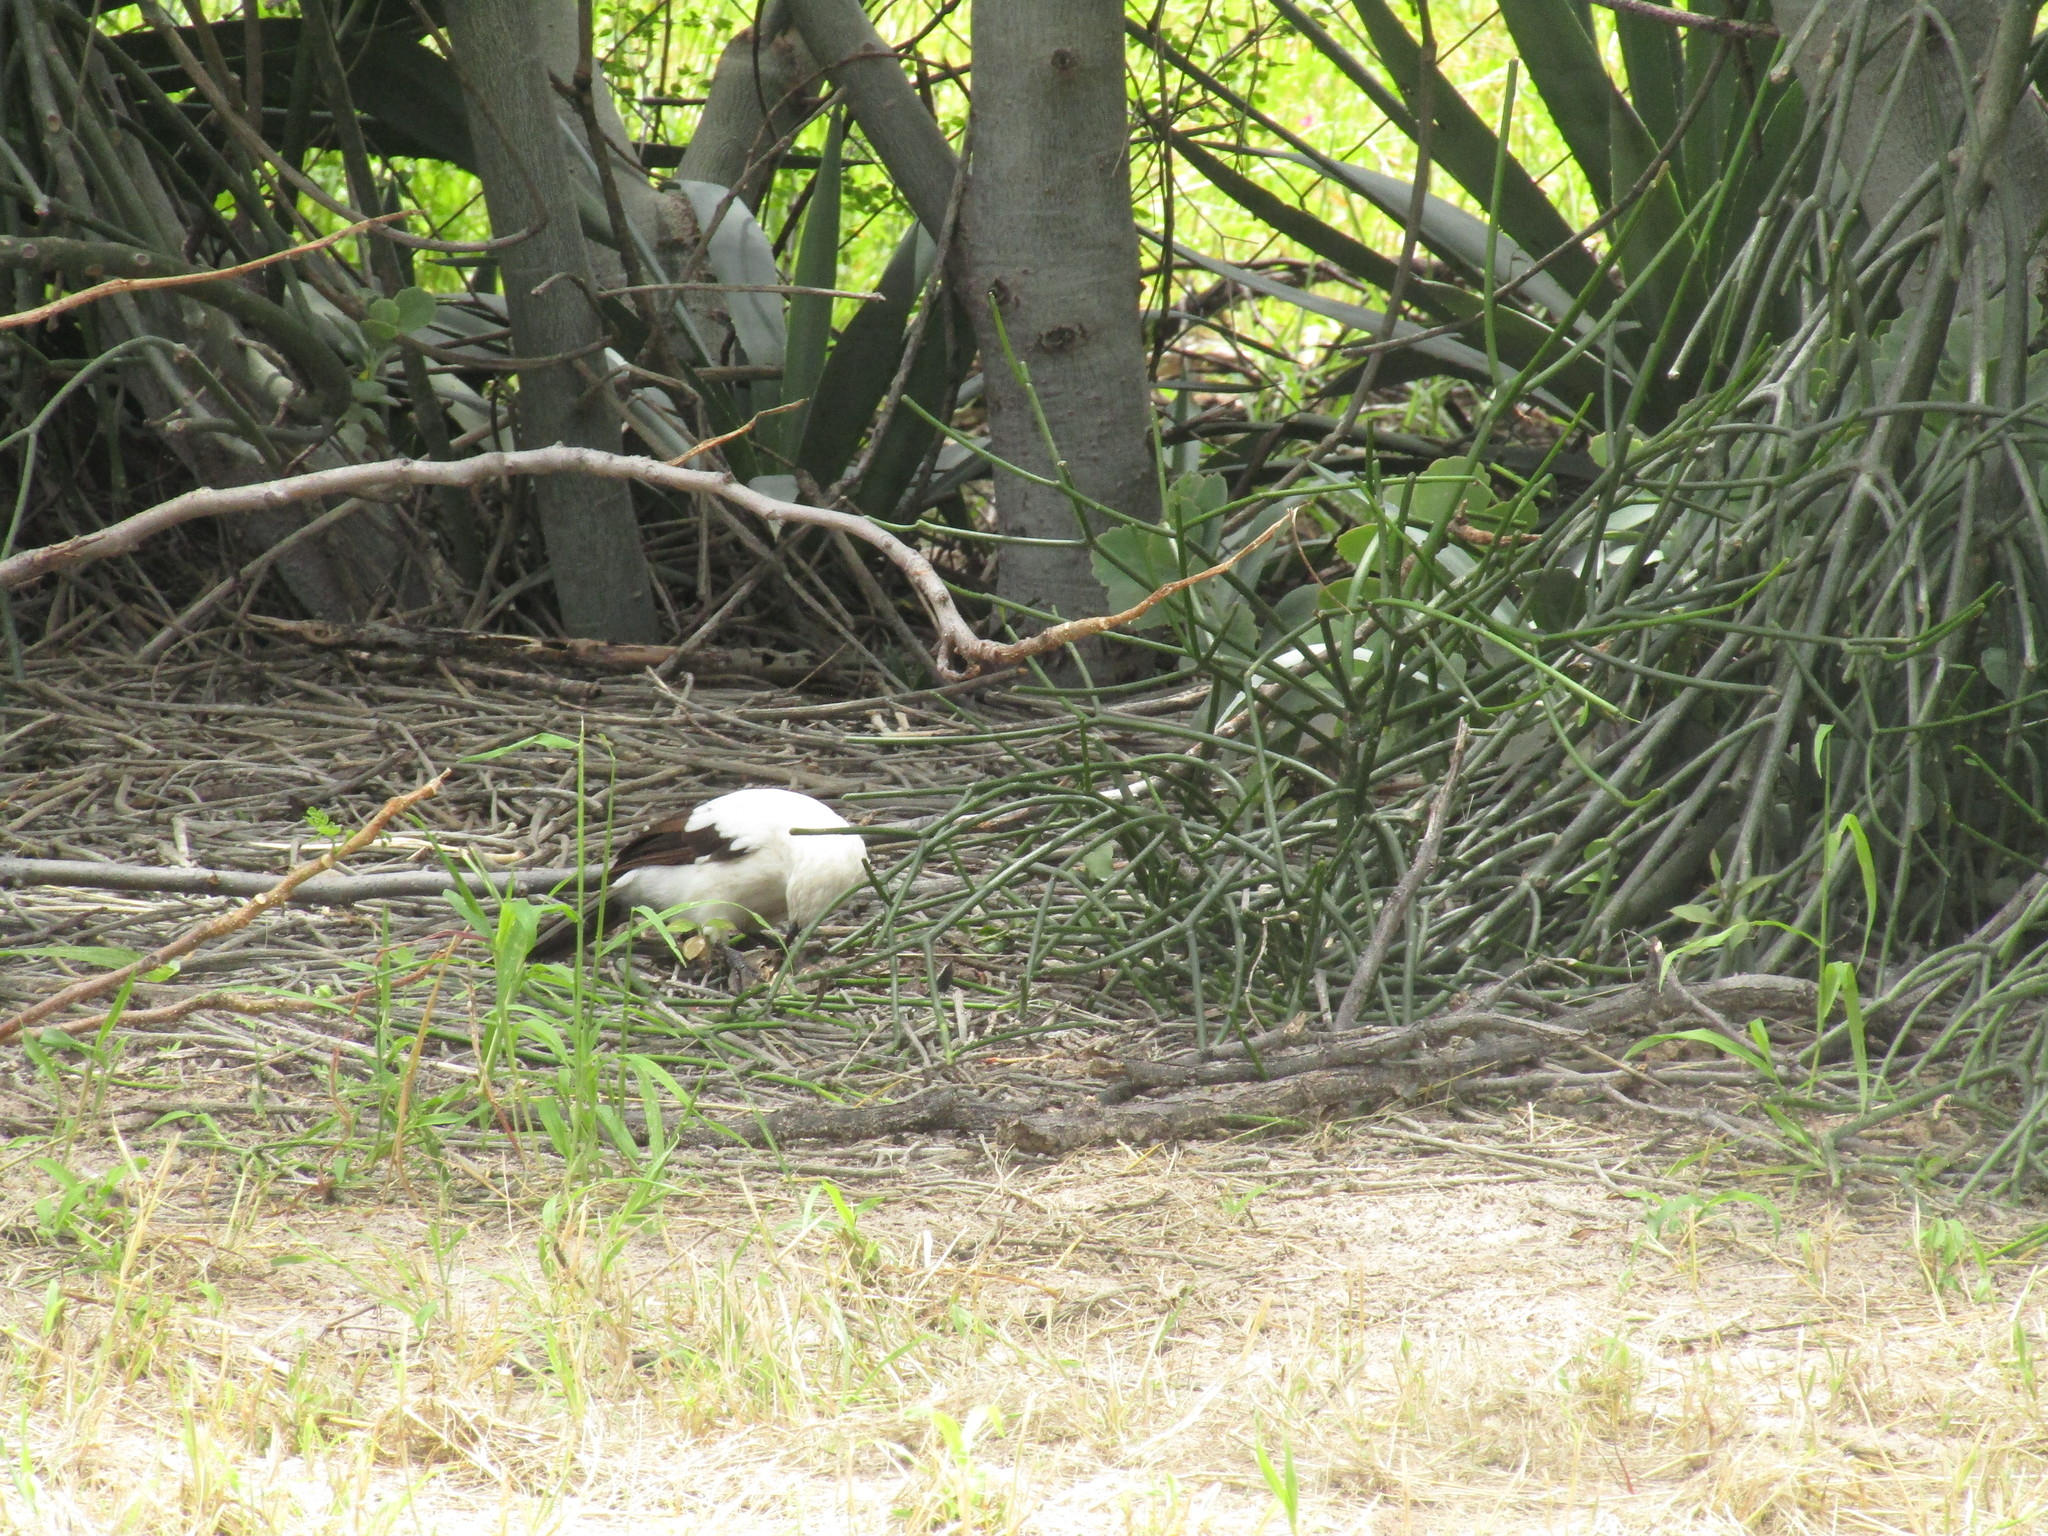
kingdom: Animalia
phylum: Chordata
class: Aves
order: Passeriformes
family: Leiothrichidae
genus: Turdoides
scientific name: Turdoides bicolor
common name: Southern pied babbler
